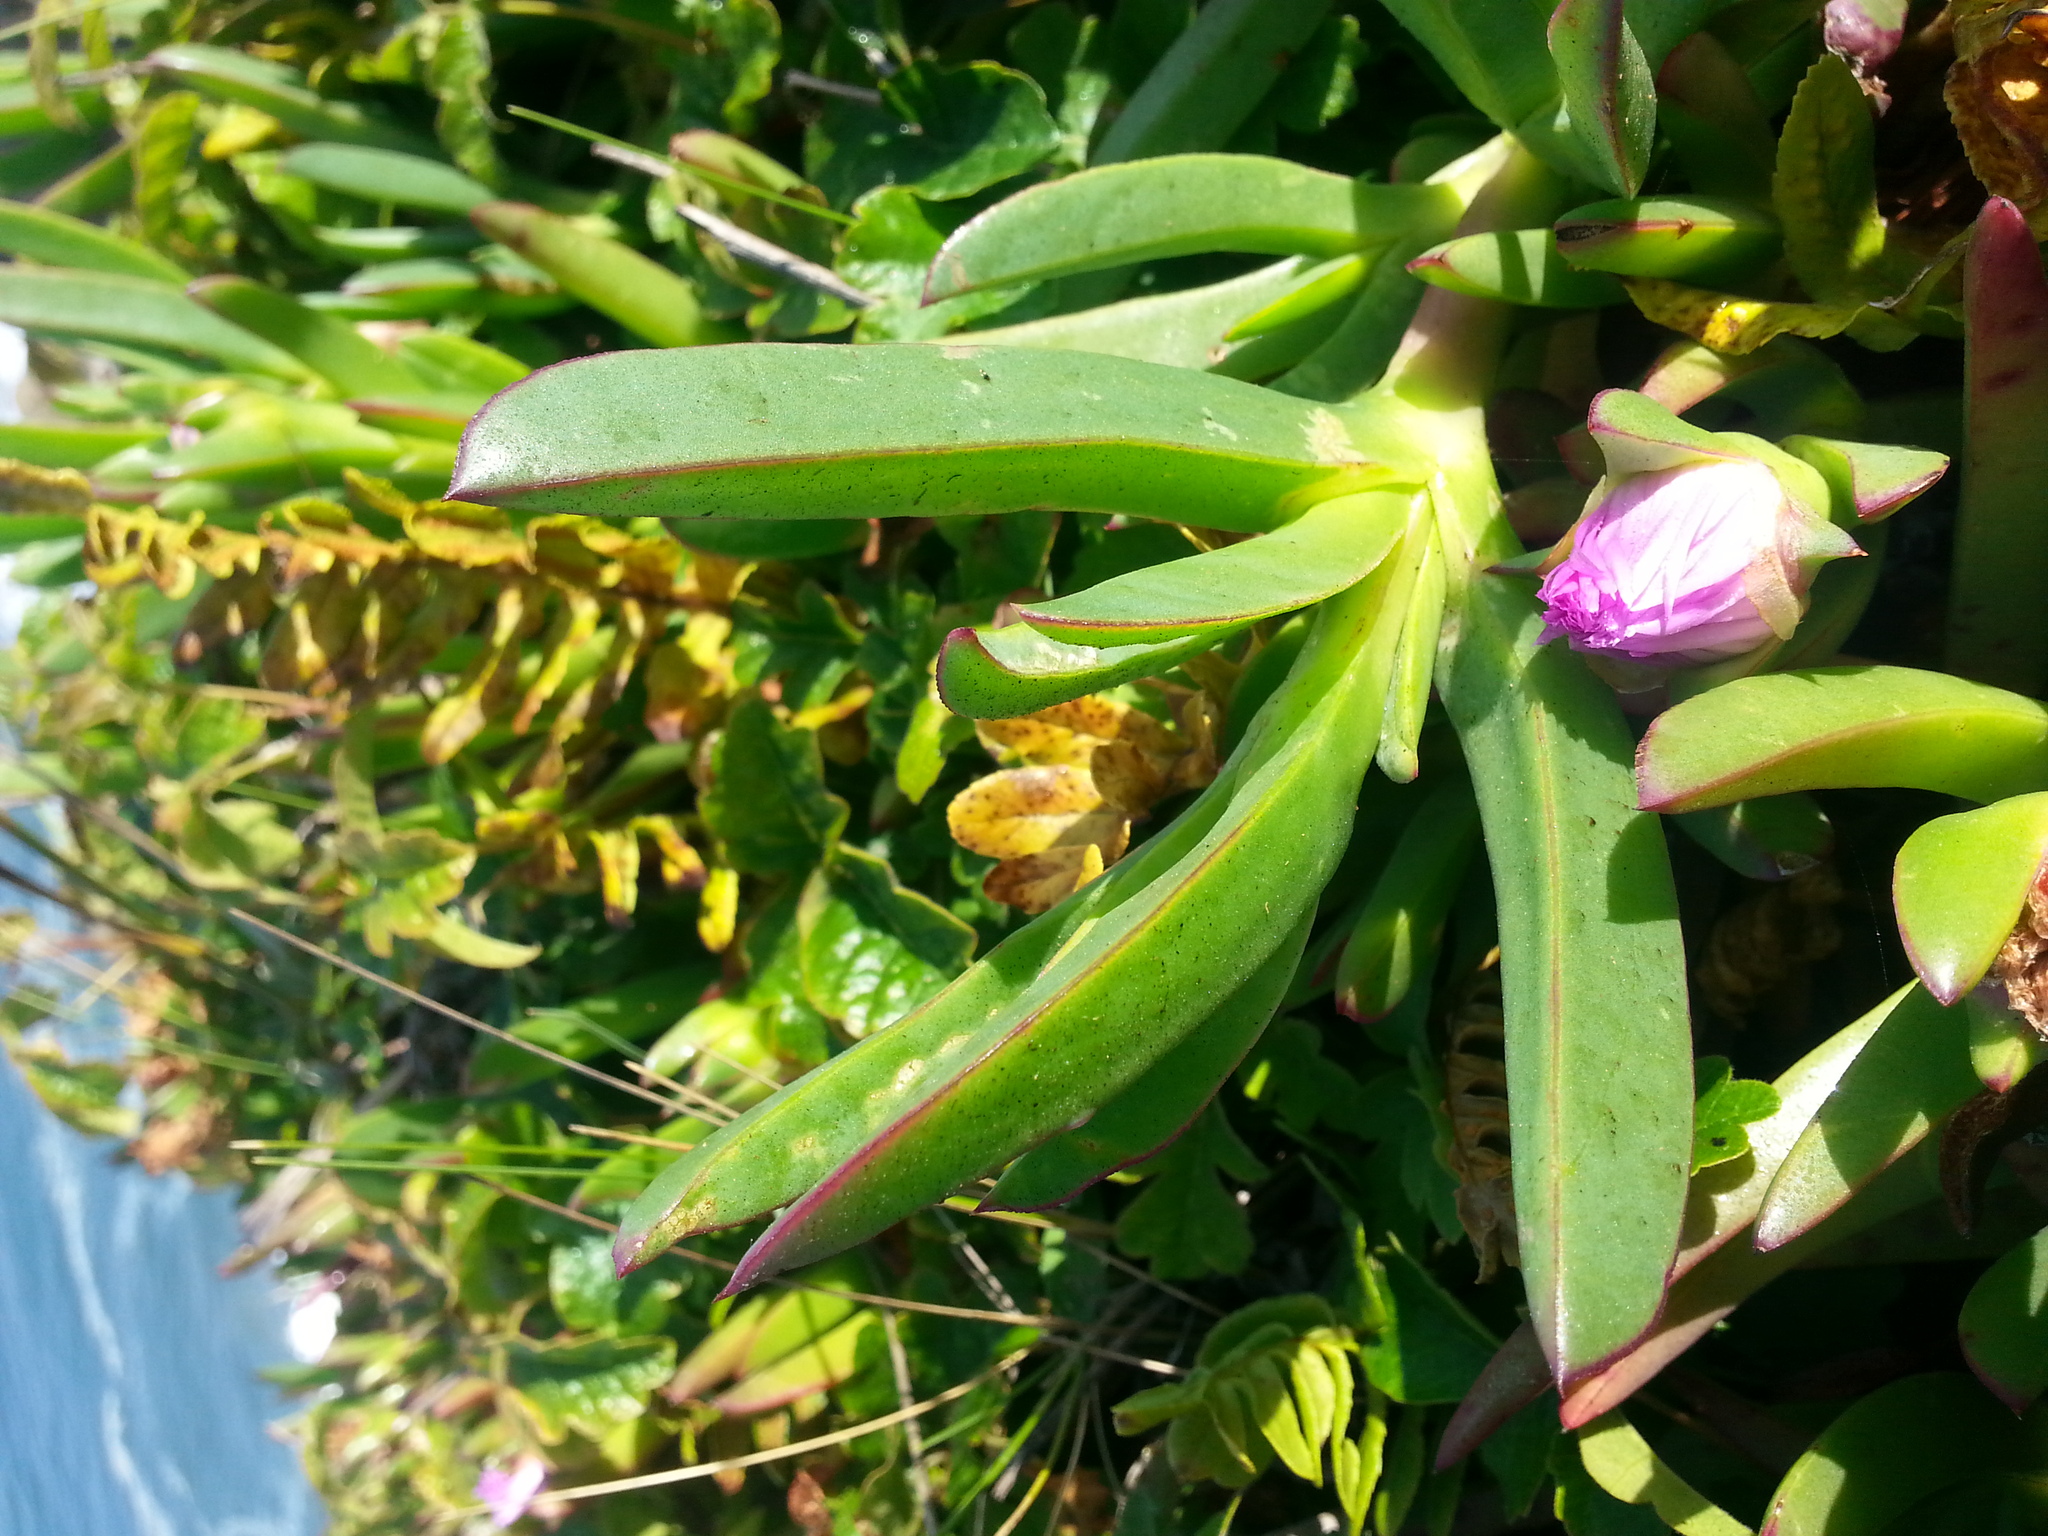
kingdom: Plantae
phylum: Tracheophyta
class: Magnoliopsida
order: Caryophyllales
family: Aizoaceae
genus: Carpobrotus
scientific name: Carpobrotus edulis
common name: Hottentot-fig
